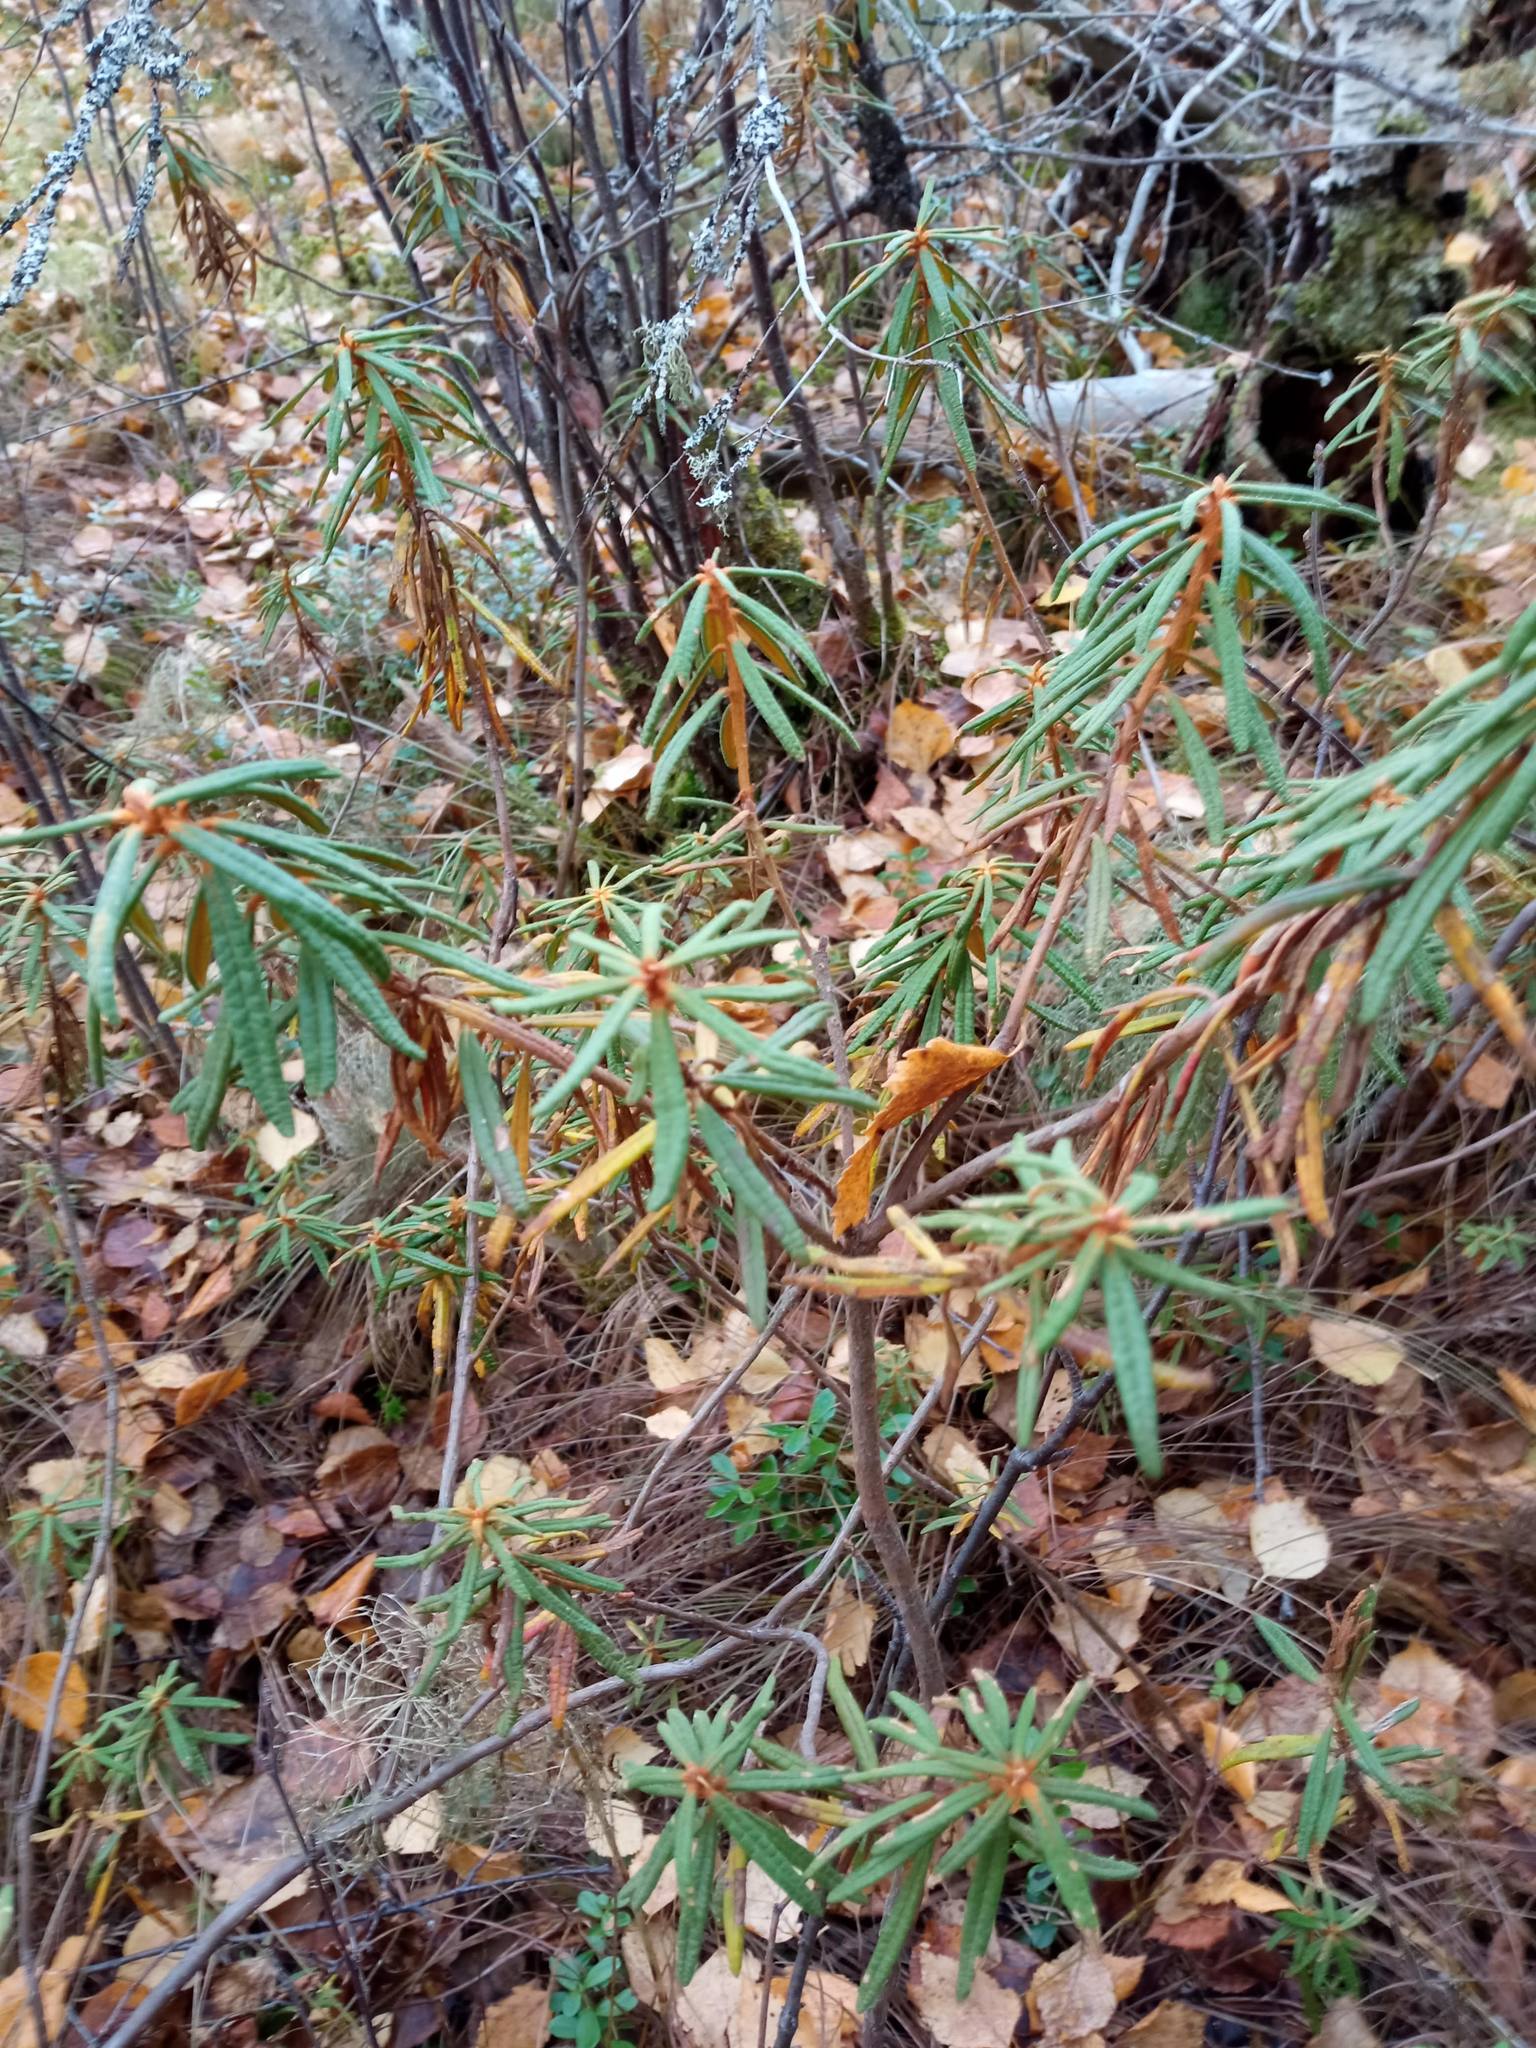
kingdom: Plantae
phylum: Tracheophyta
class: Magnoliopsida
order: Ericales
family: Ericaceae
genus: Rhododendron
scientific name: Rhododendron tomentosum
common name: Marsh labrador tea
